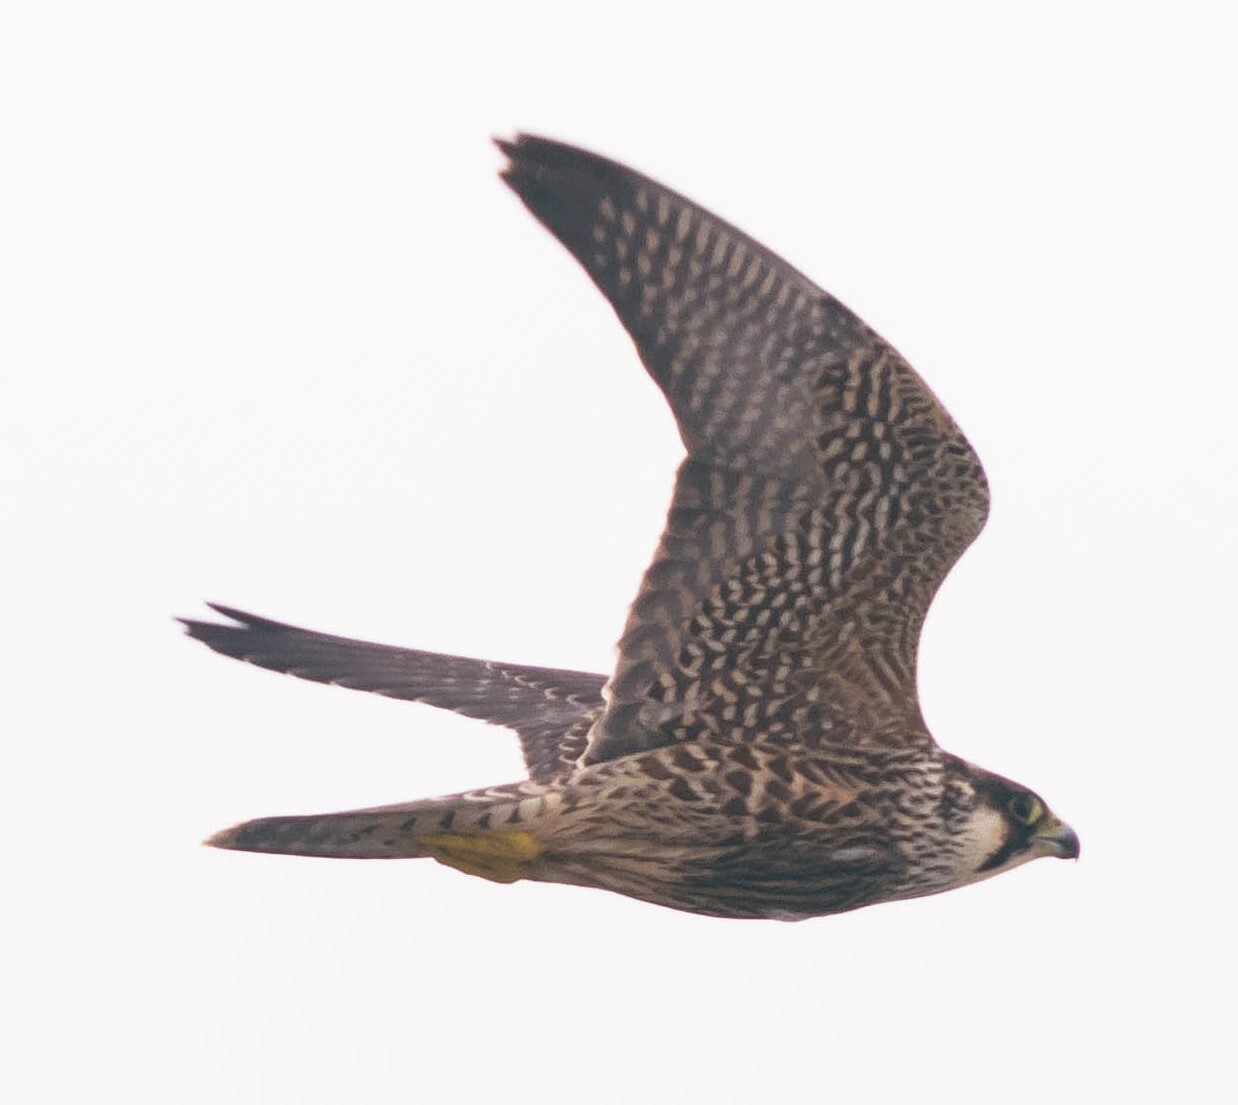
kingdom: Animalia
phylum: Chordata
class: Aves
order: Falconiformes
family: Falconidae
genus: Falco
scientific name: Falco peregrinus
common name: Peregrine falcon
